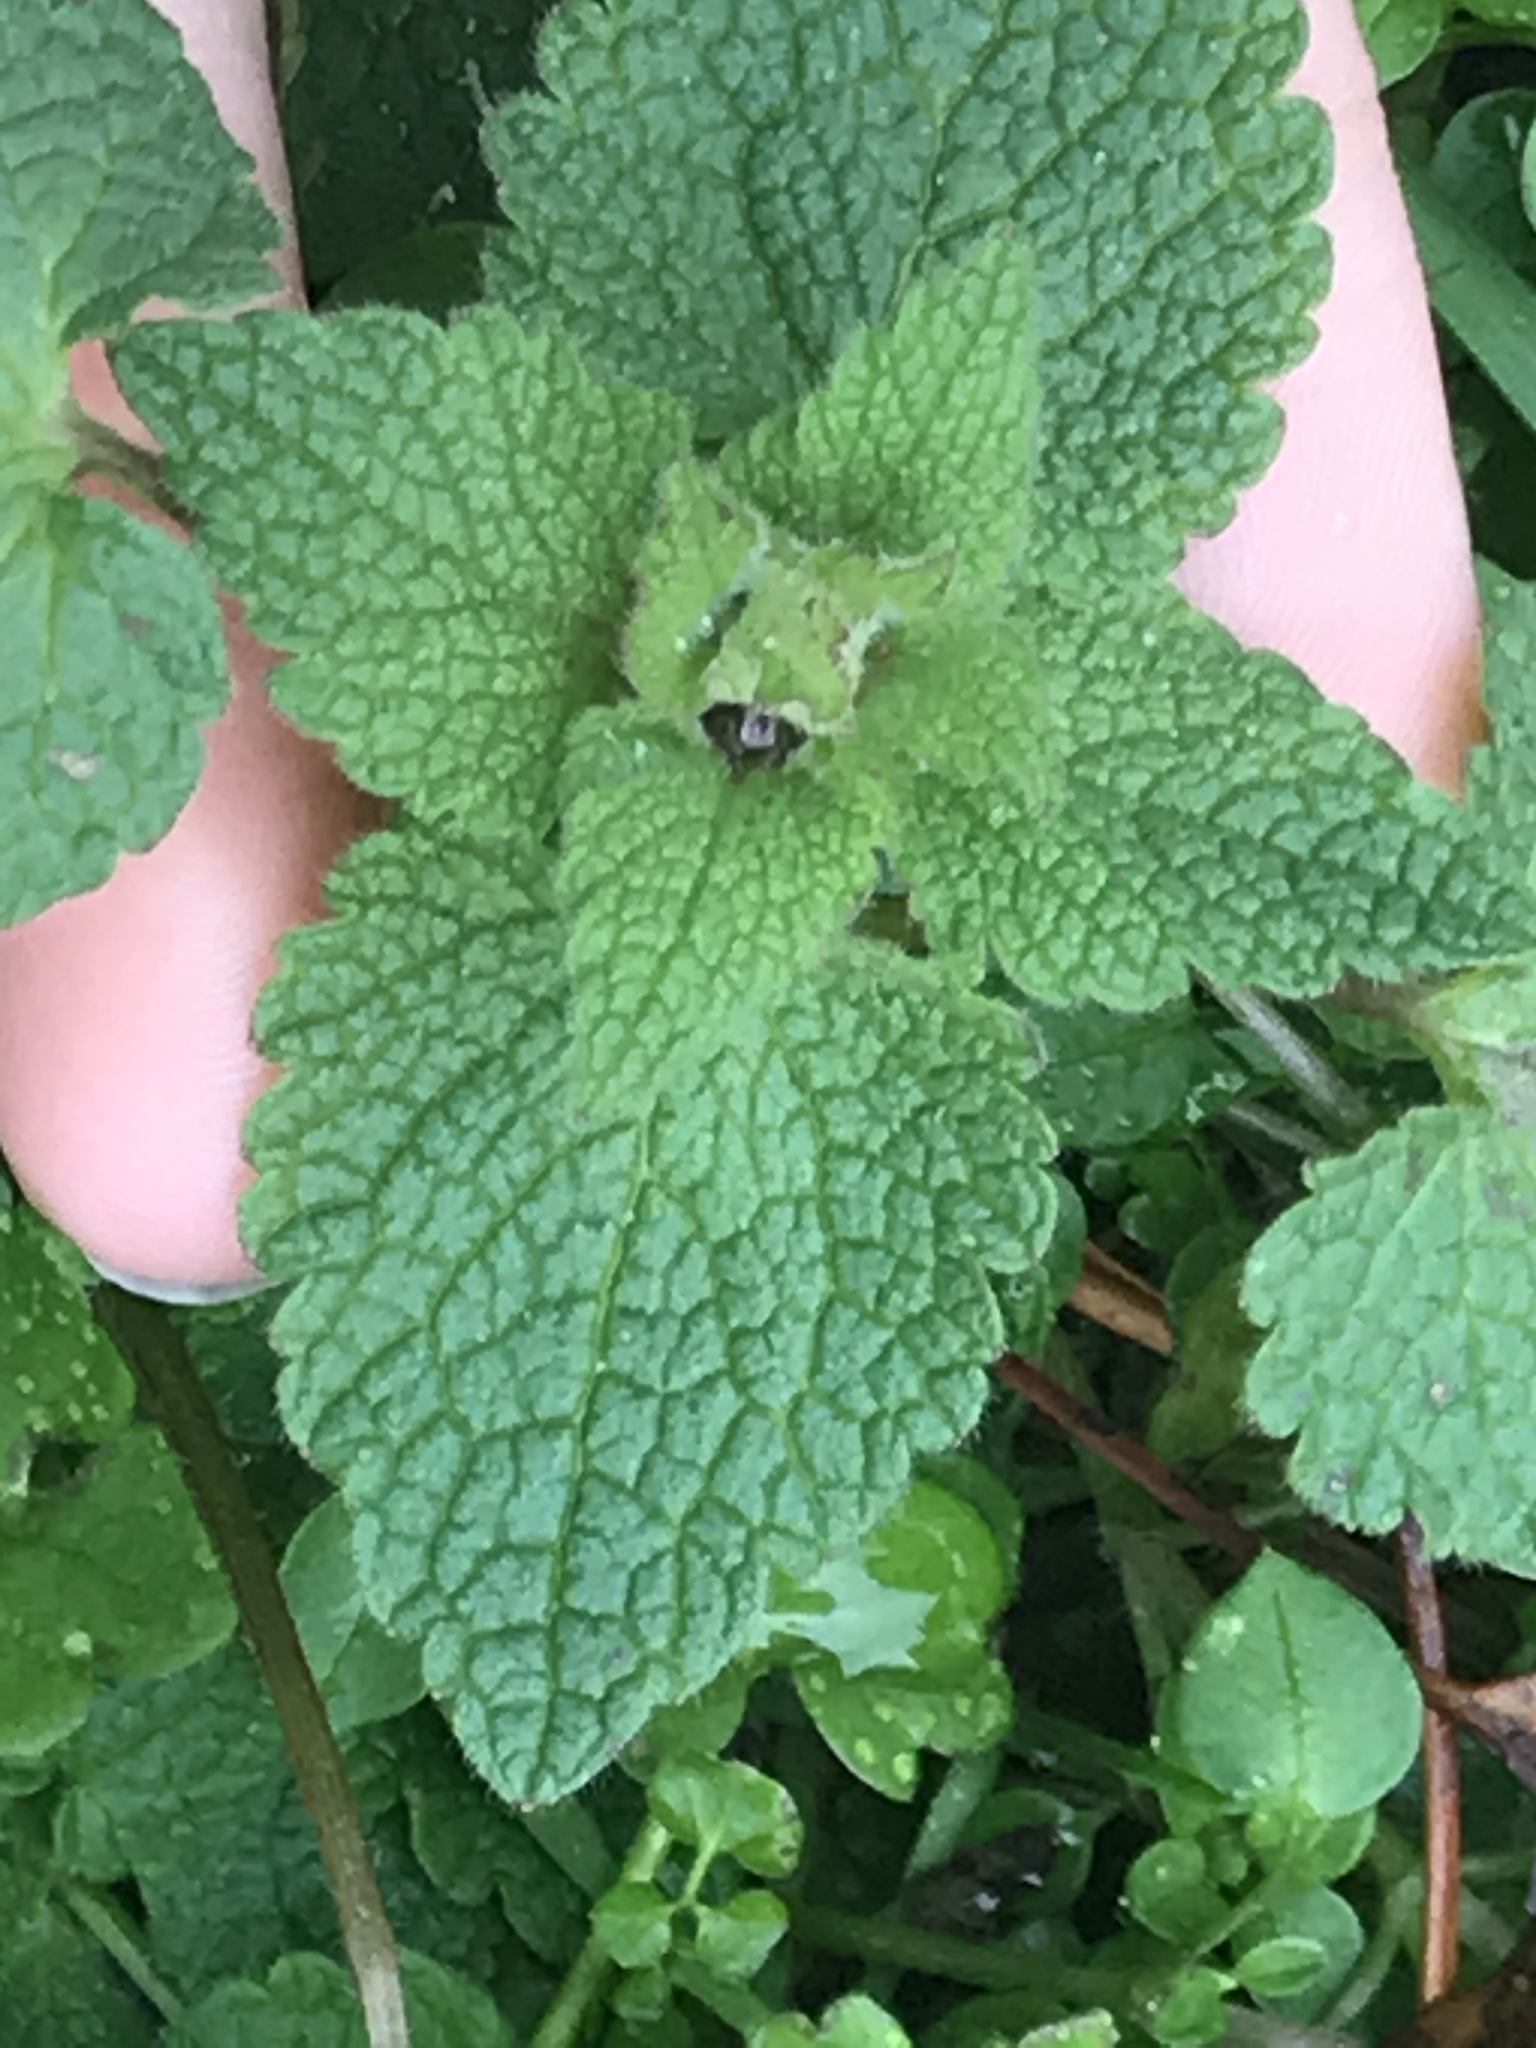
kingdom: Plantae
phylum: Tracheophyta
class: Magnoliopsida
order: Lamiales
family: Lamiaceae
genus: Lamium
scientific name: Lamium purpureum
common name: Red dead-nettle
